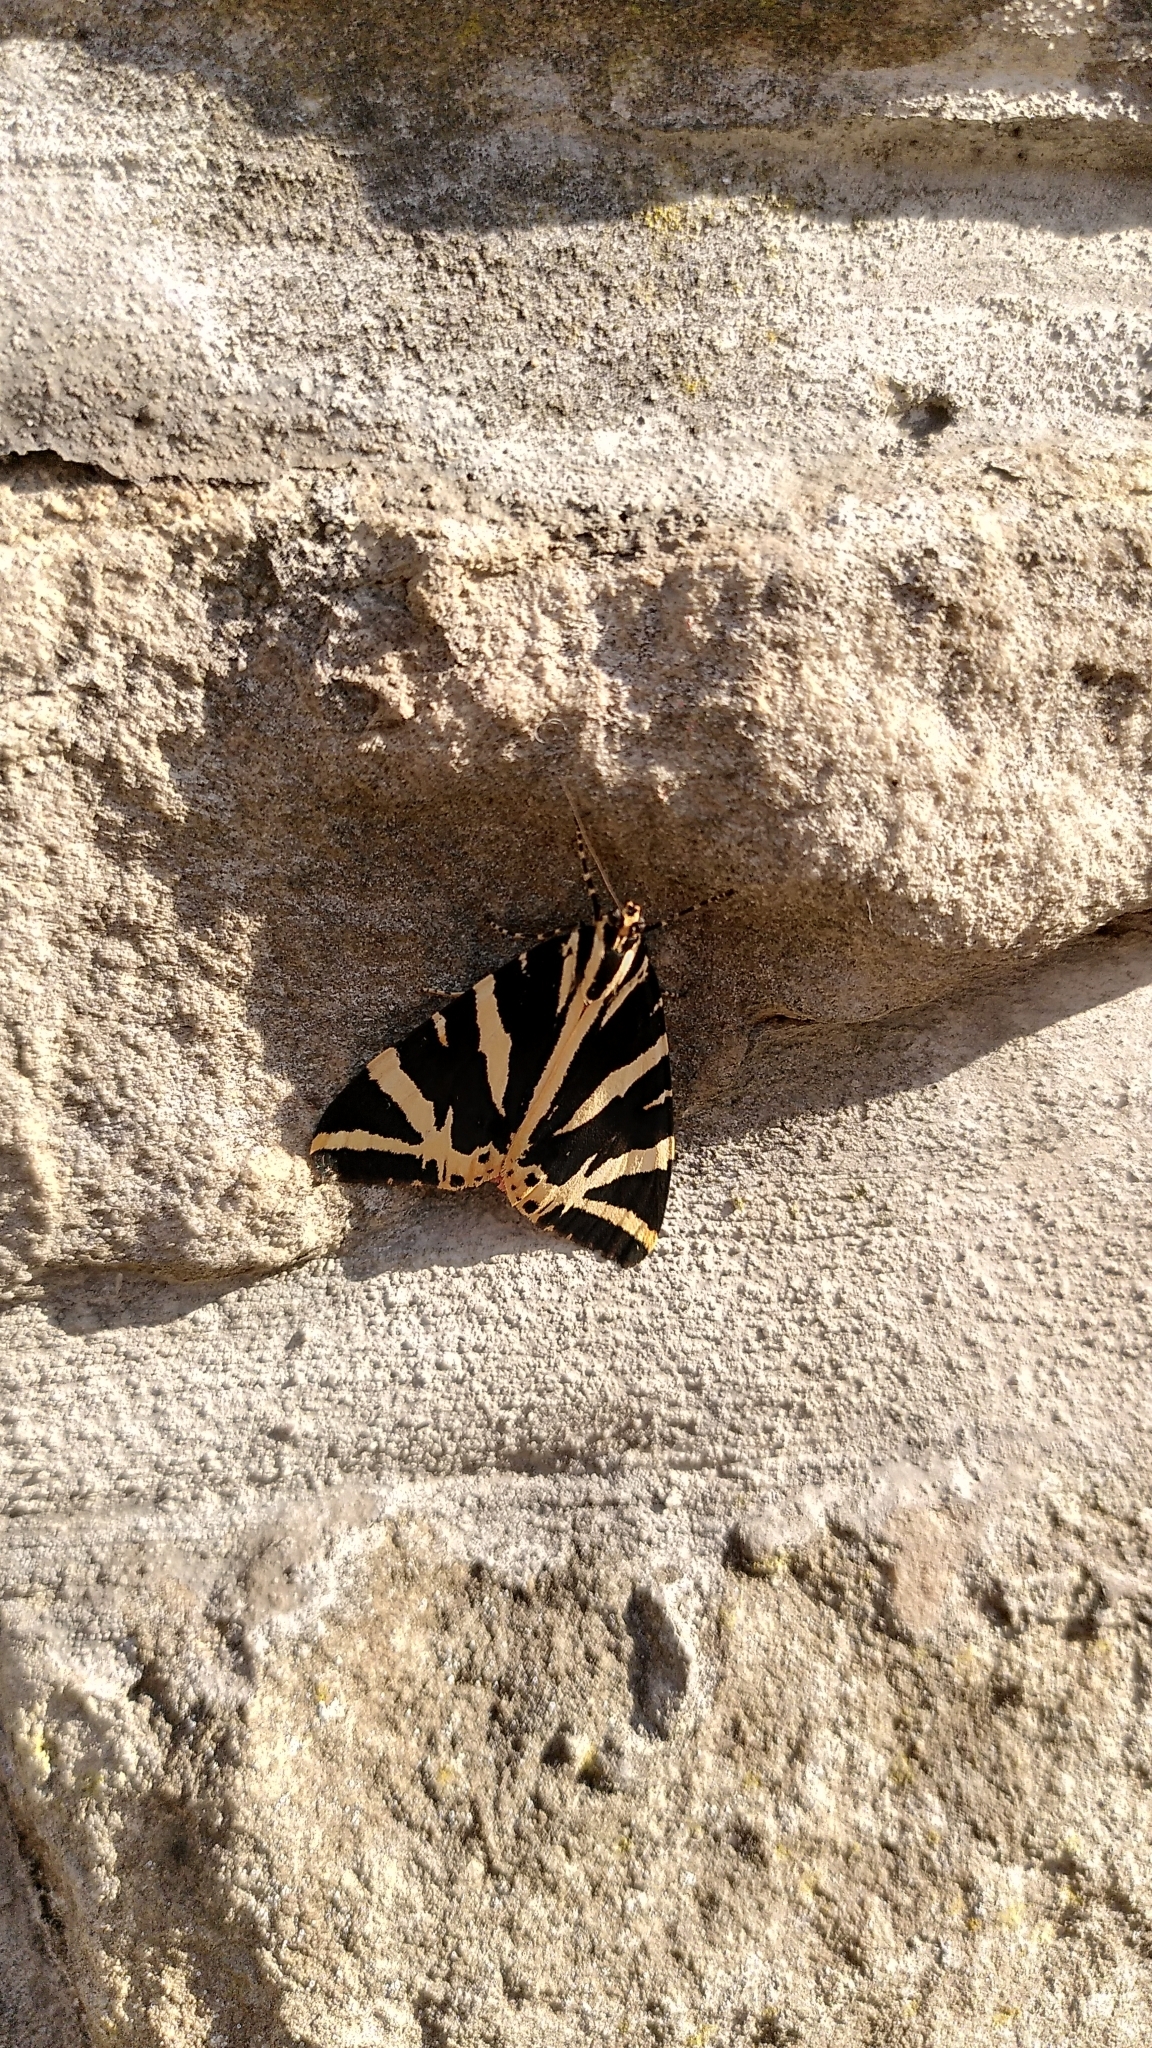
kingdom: Animalia
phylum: Arthropoda
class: Insecta
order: Lepidoptera
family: Erebidae
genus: Euplagia
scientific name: Euplagia quadripunctaria
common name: Jersey tiger
